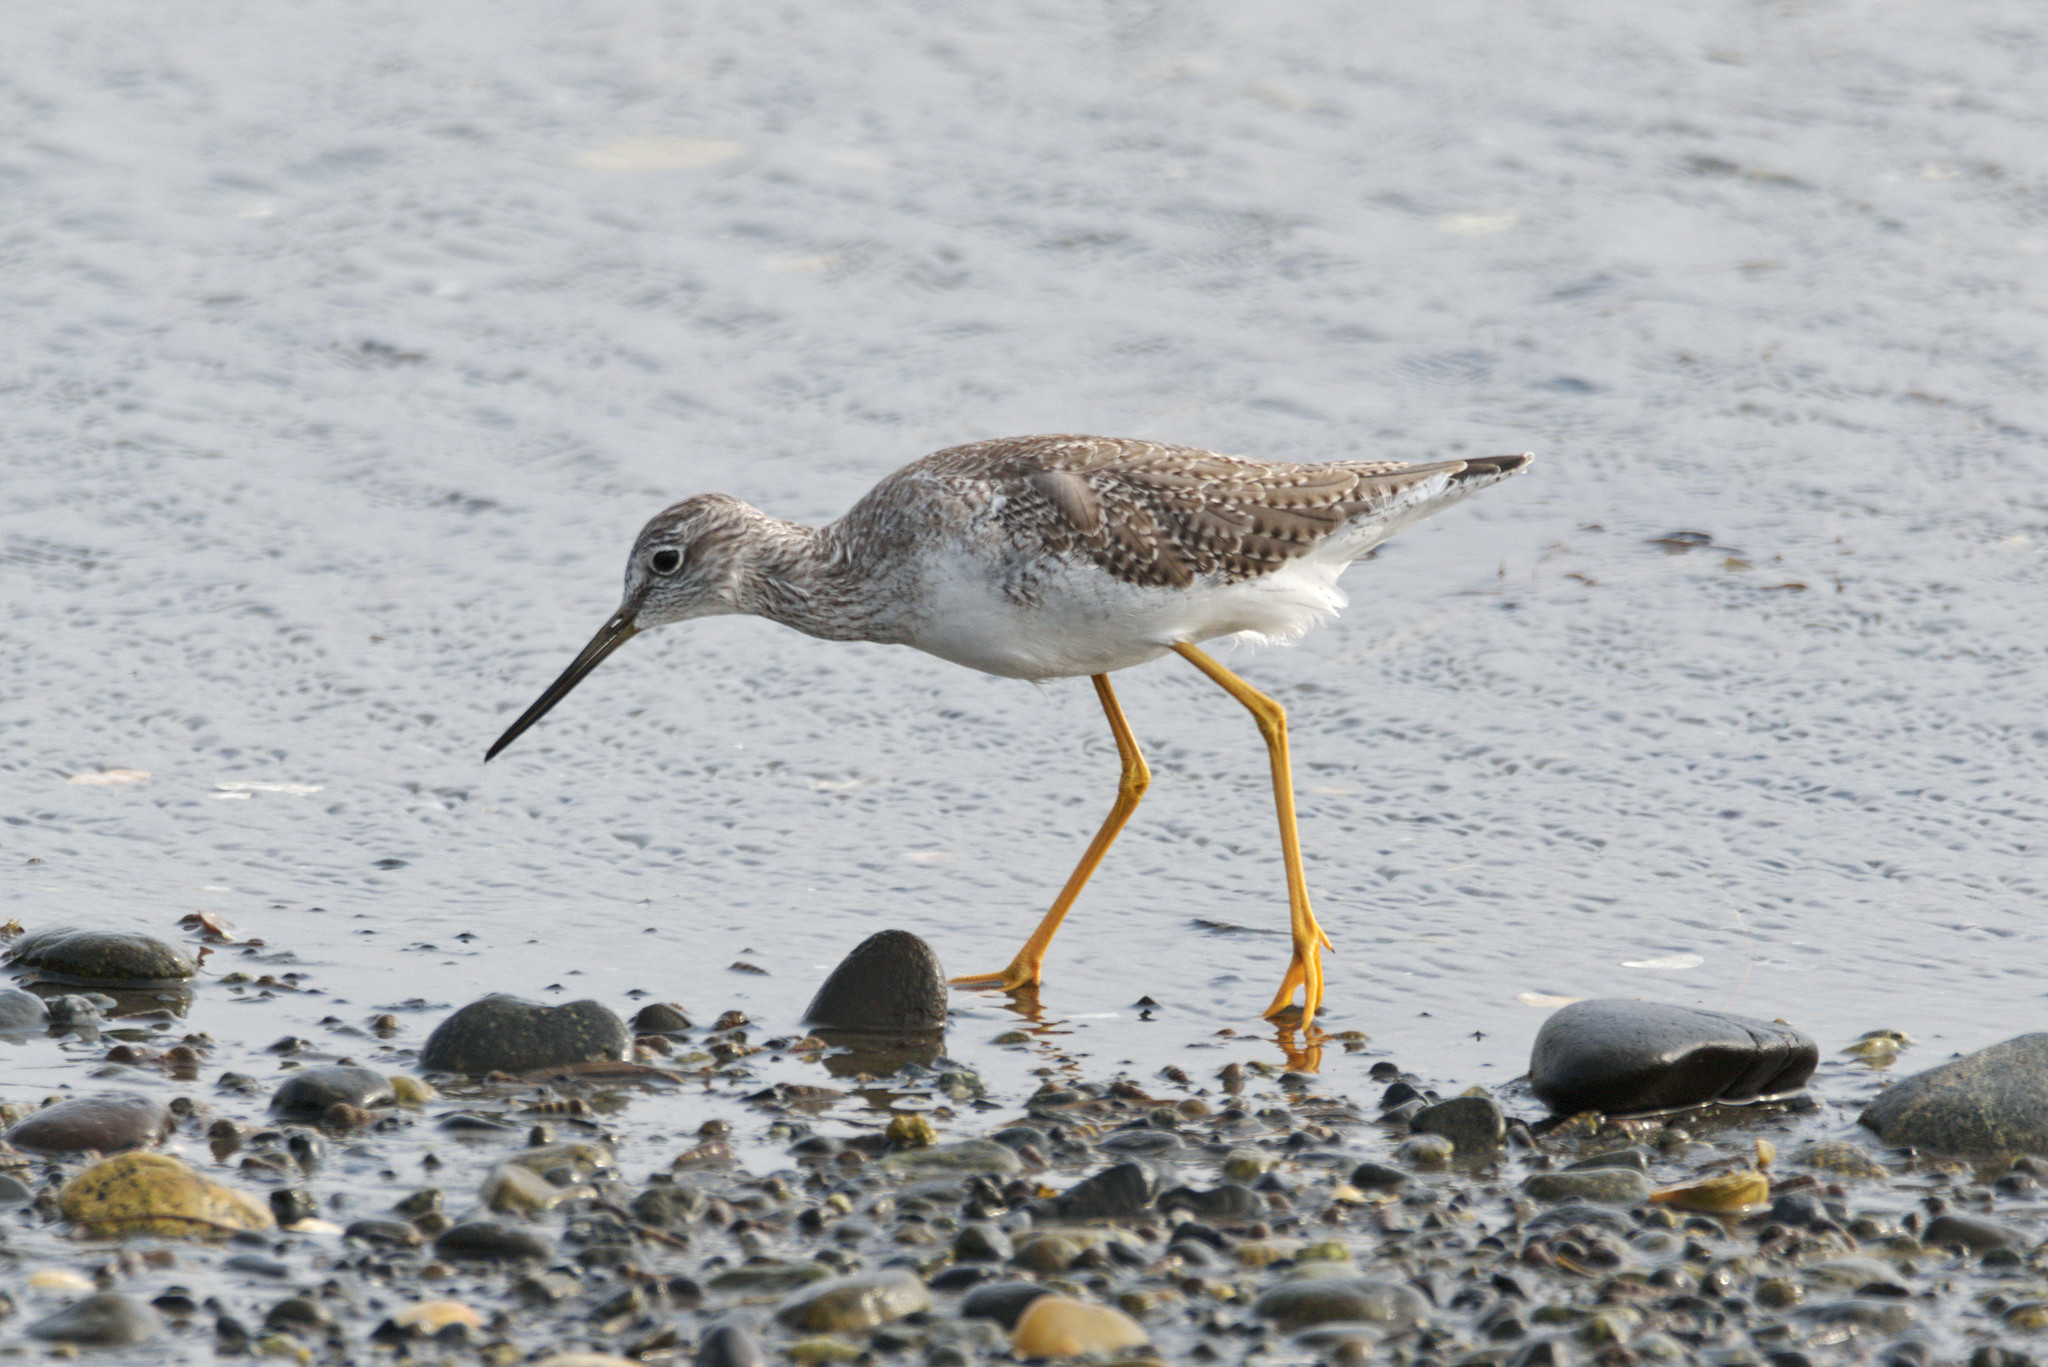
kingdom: Animalia
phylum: Chordata
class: Aves
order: Charadriiformes
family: Scolopacidae
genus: Tringa
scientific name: Tringa melanoleuca
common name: Greater yellowlegs
